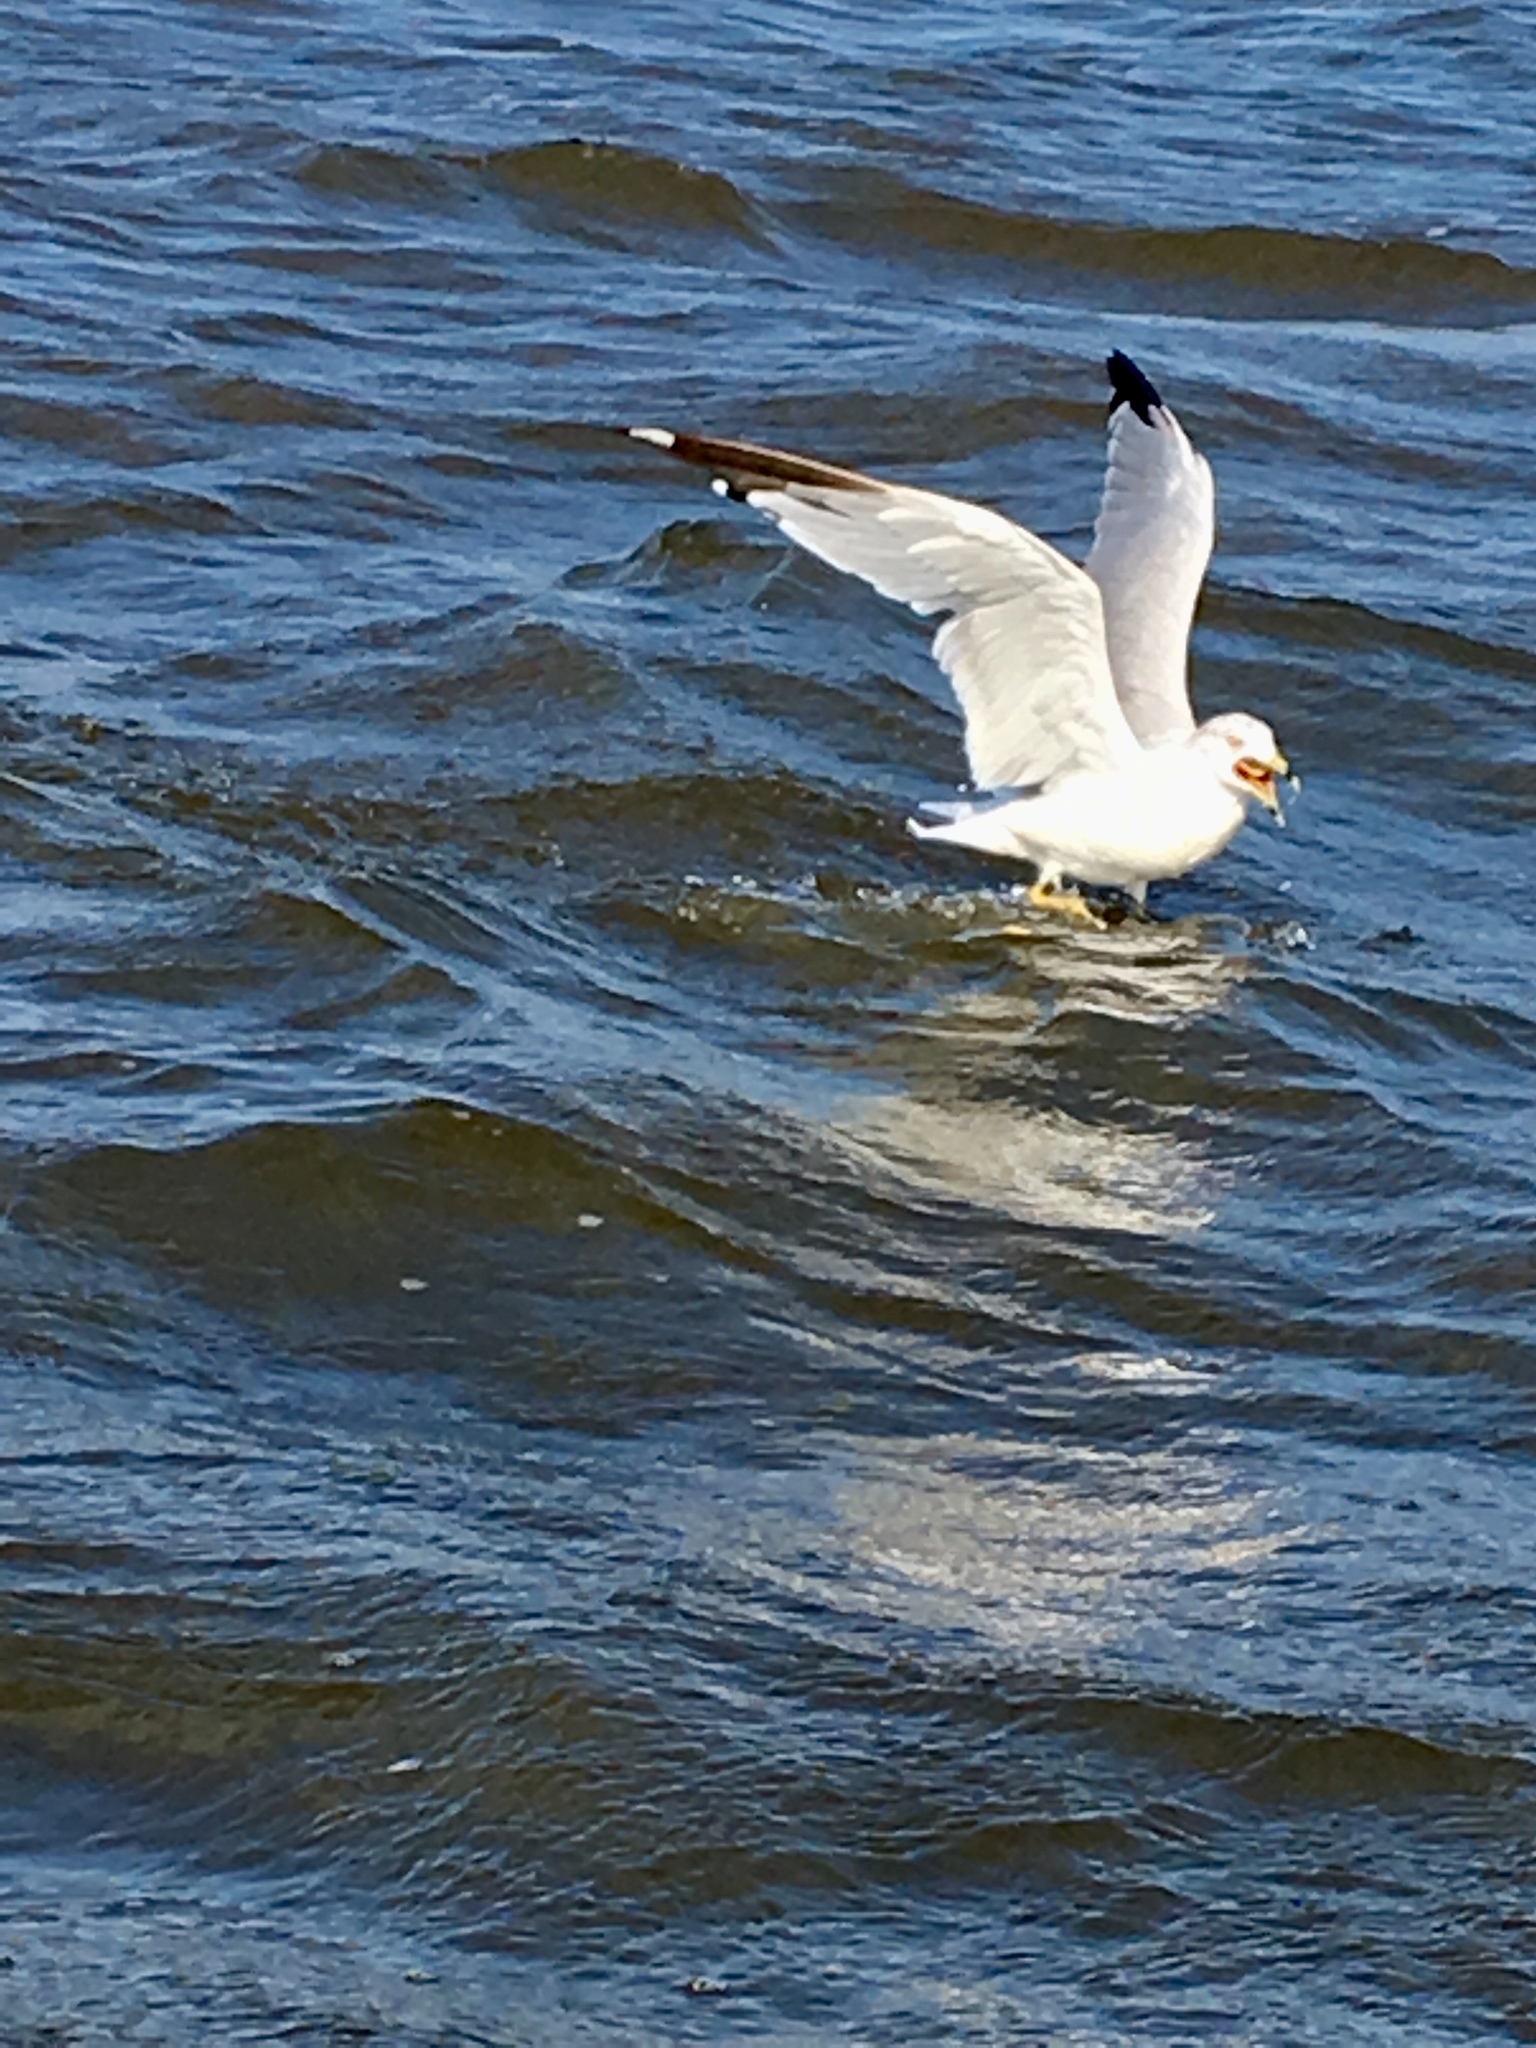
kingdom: Animalia
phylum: Chordata
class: Aves
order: Charadriiformes
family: Laridae
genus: Larus
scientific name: Larus delawarensis
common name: Ring-billed gull
